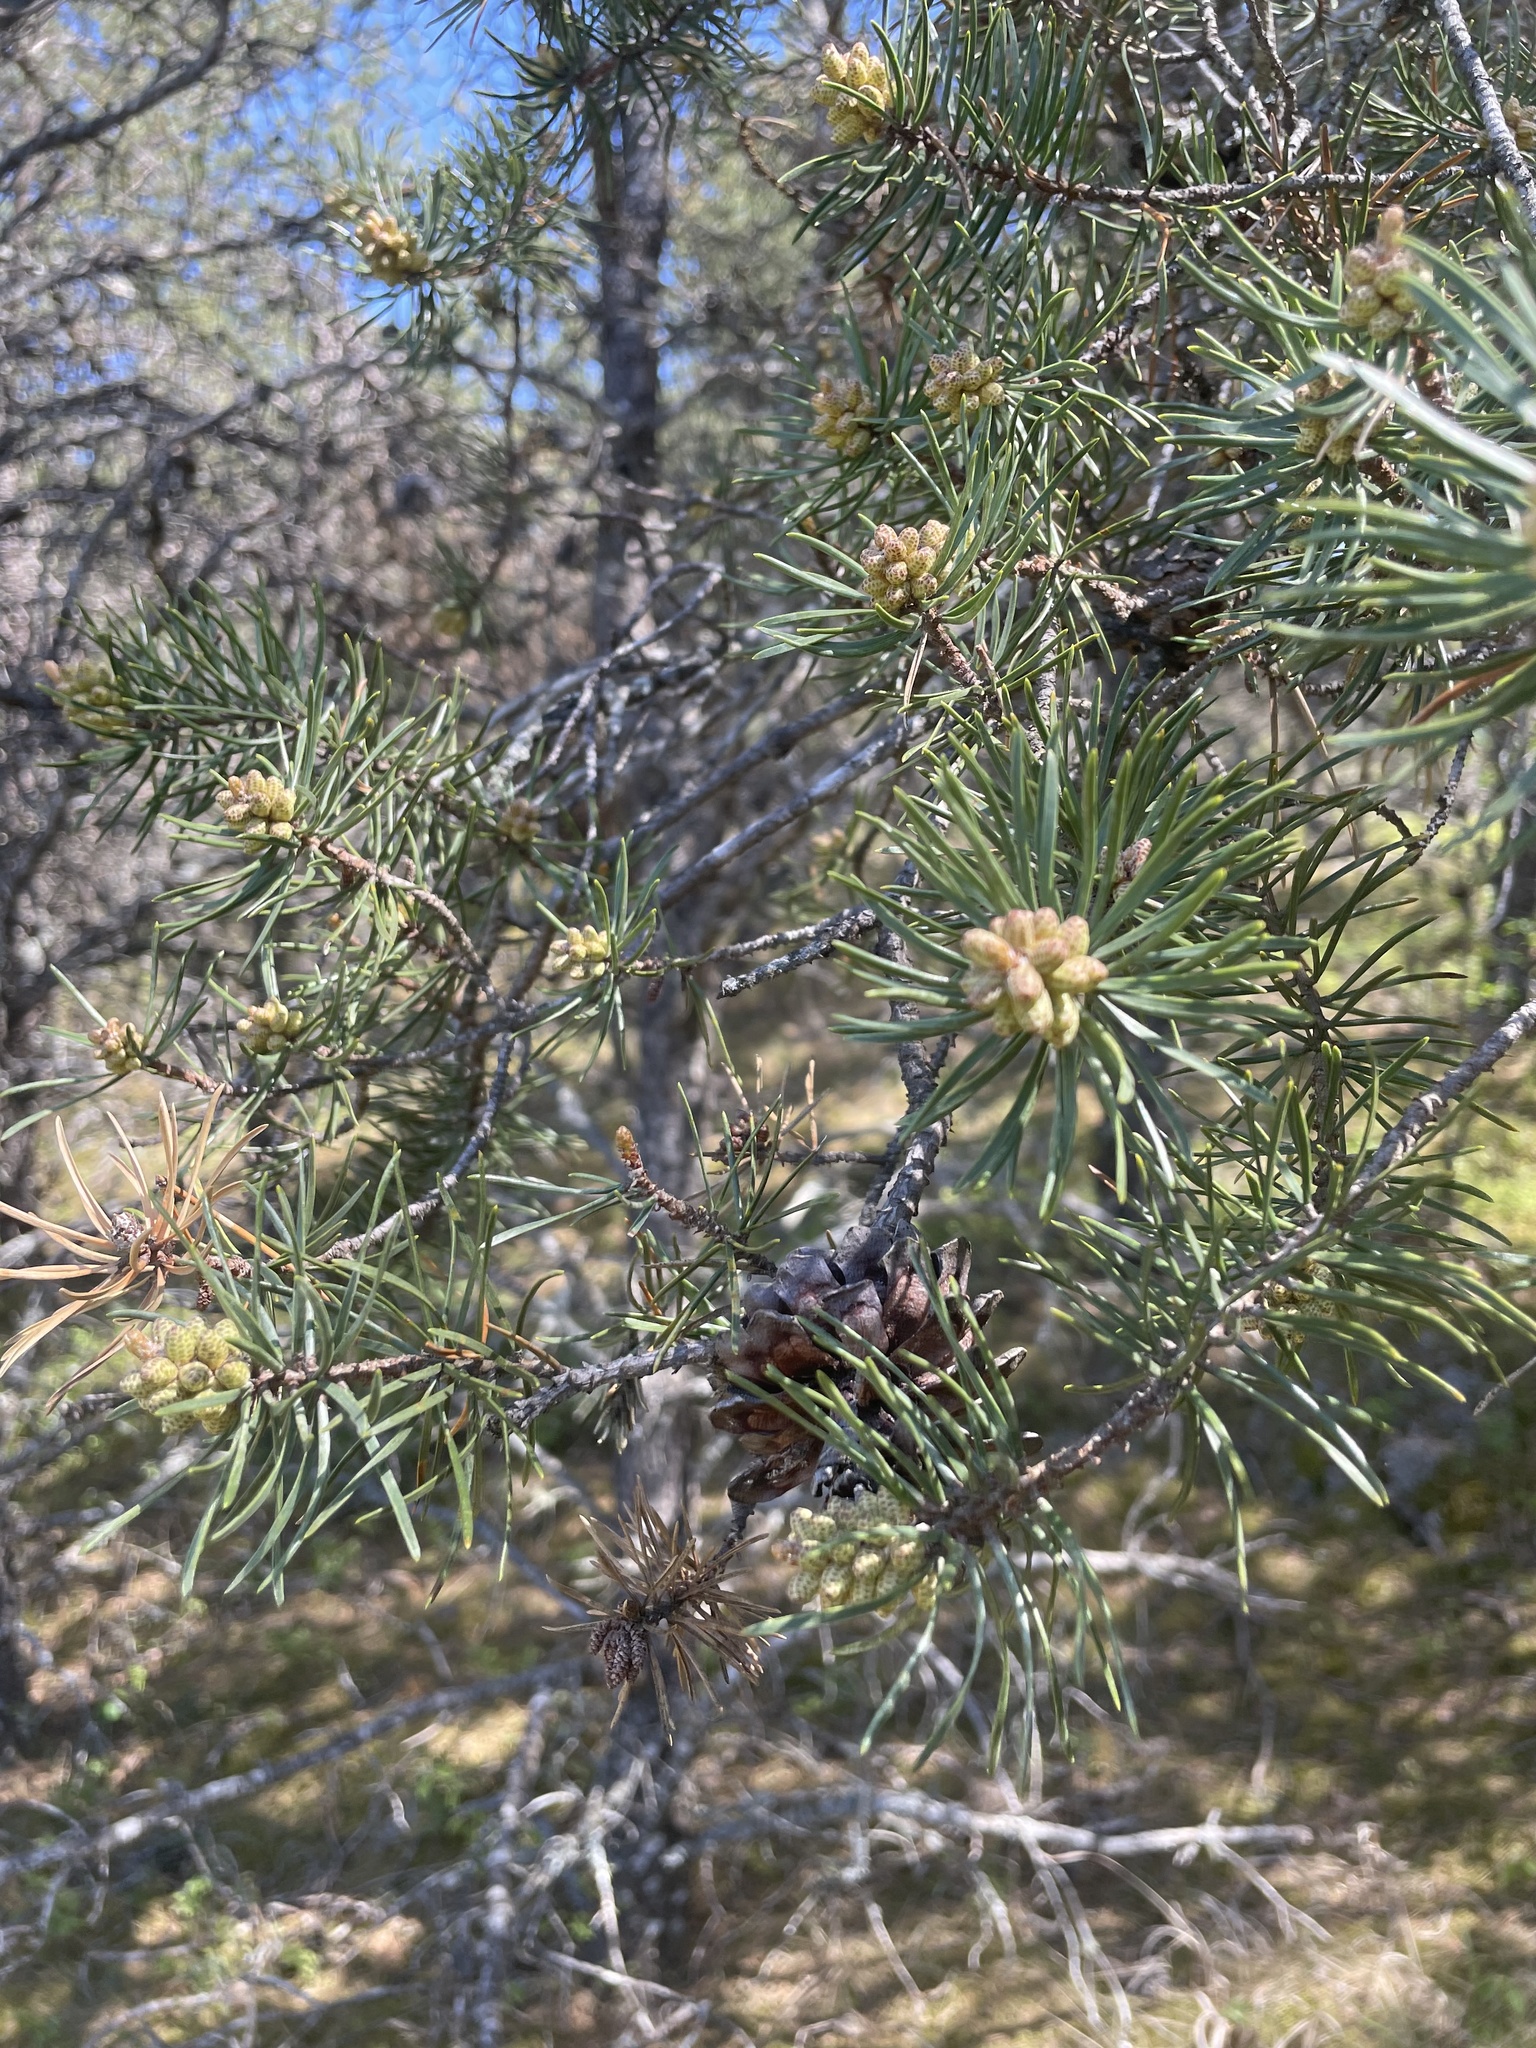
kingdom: Plantae
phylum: Tracheophyta
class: Pinopsida
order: Pinales
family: Pinaceae
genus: Pinus
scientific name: Pinus banksiana
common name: Jack pine
